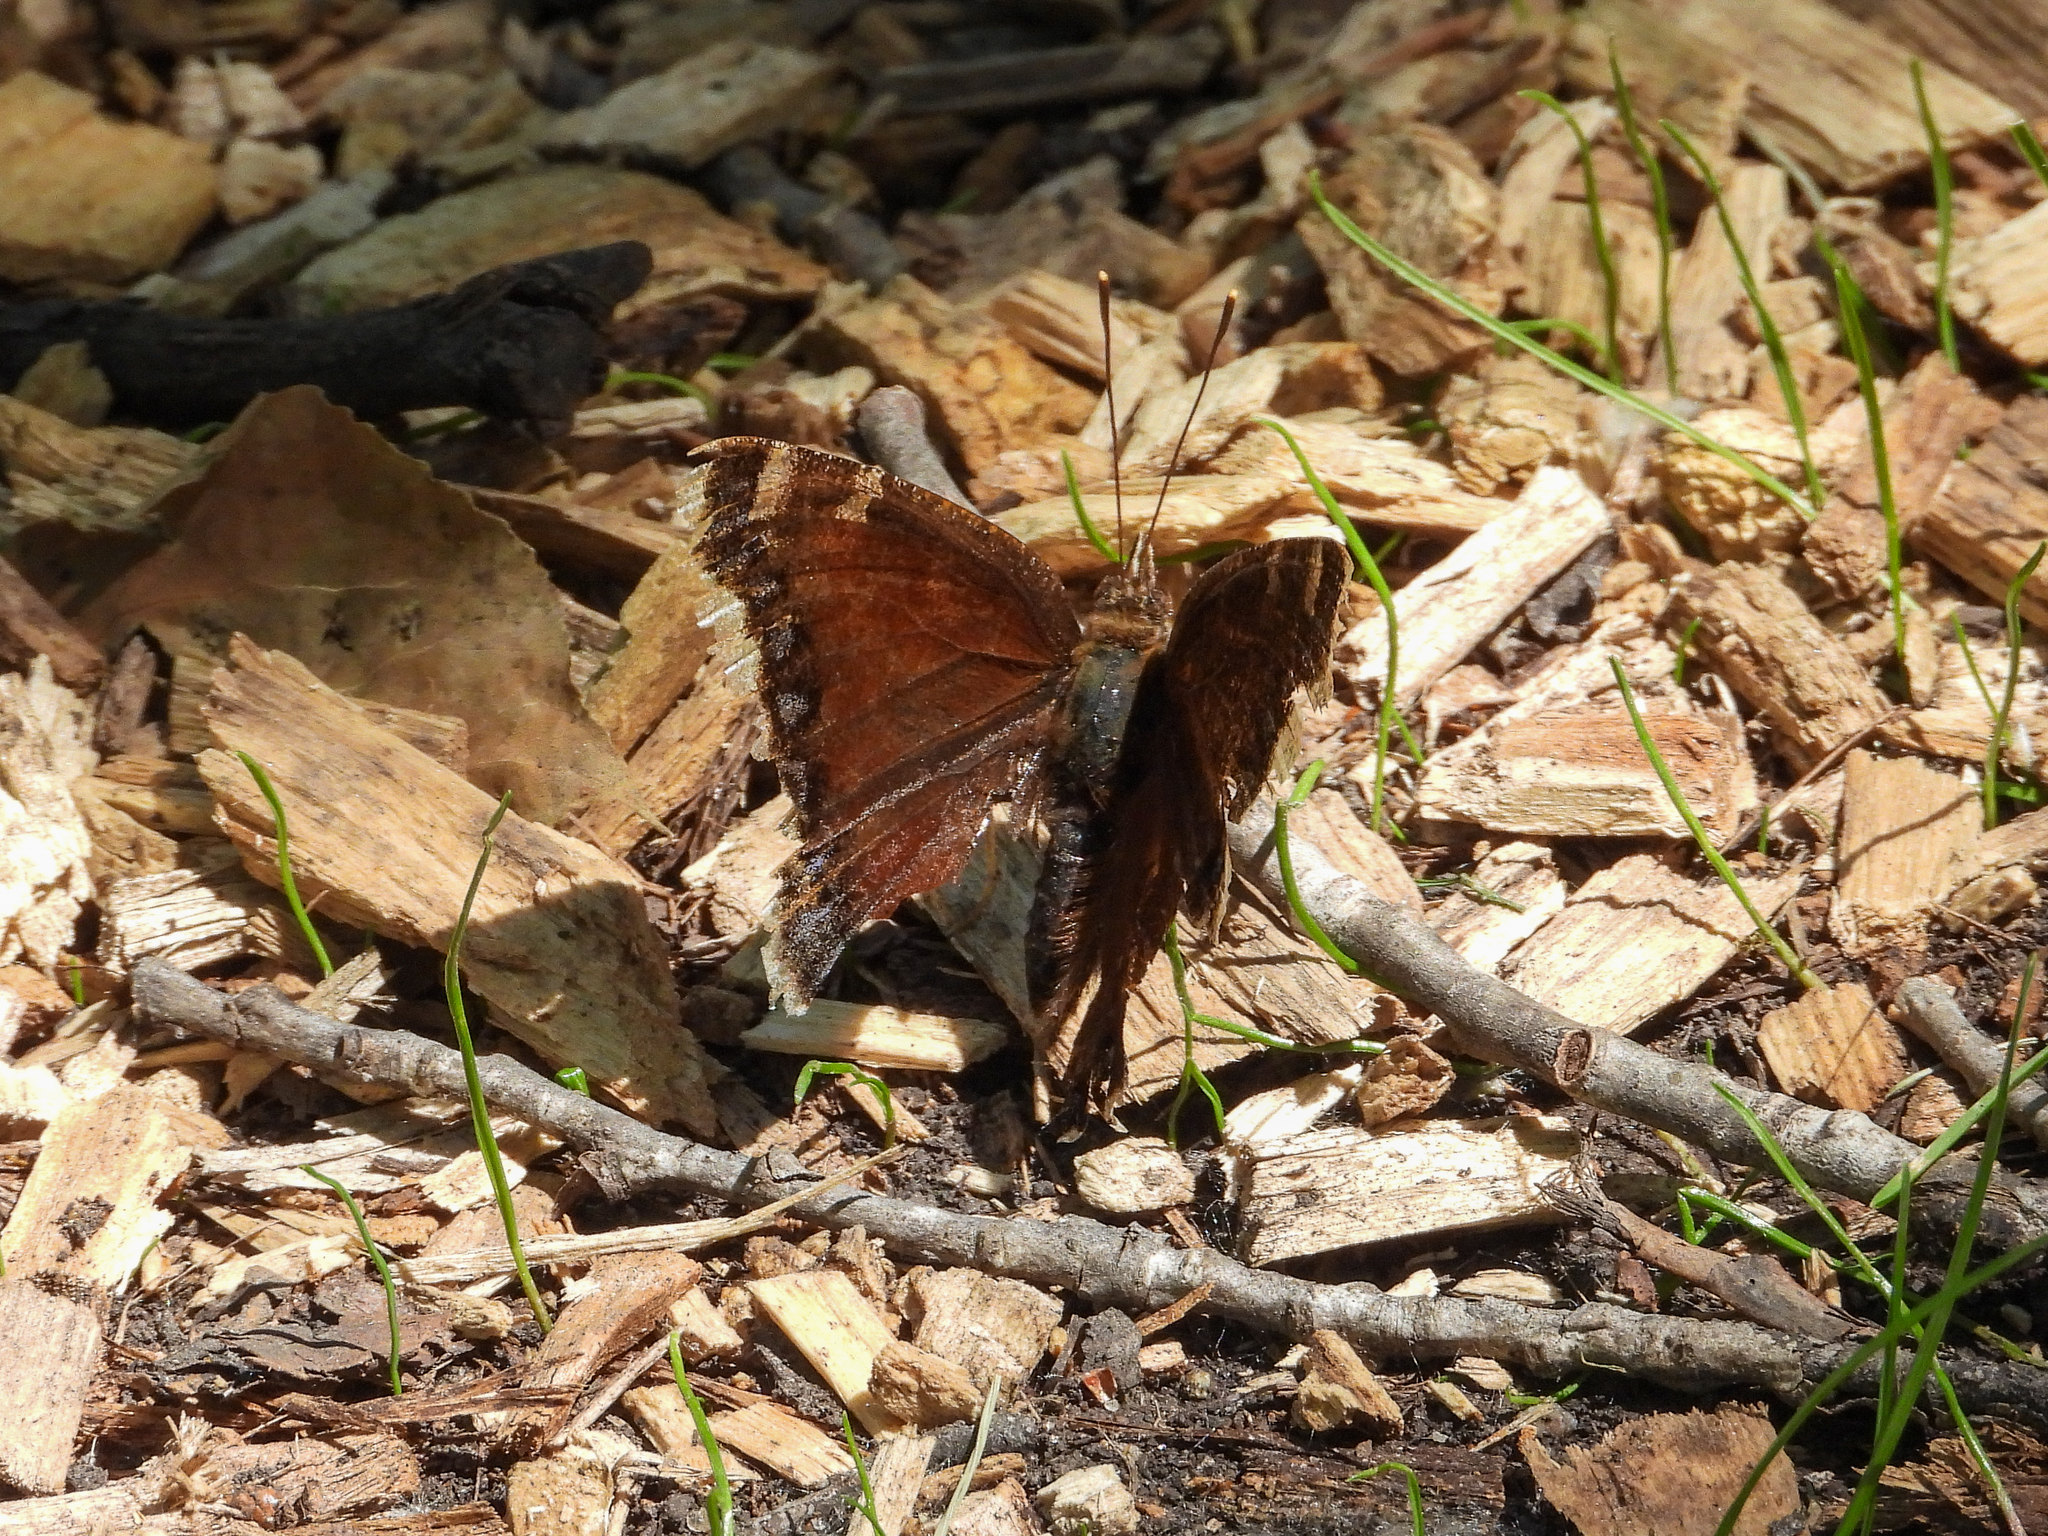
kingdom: Animalia
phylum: Arthropoda
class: Insecta
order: Lepidoptera
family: Nymphalidae
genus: Nymphalis
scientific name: Nymphalis antiopa
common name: Camberwell beauty
